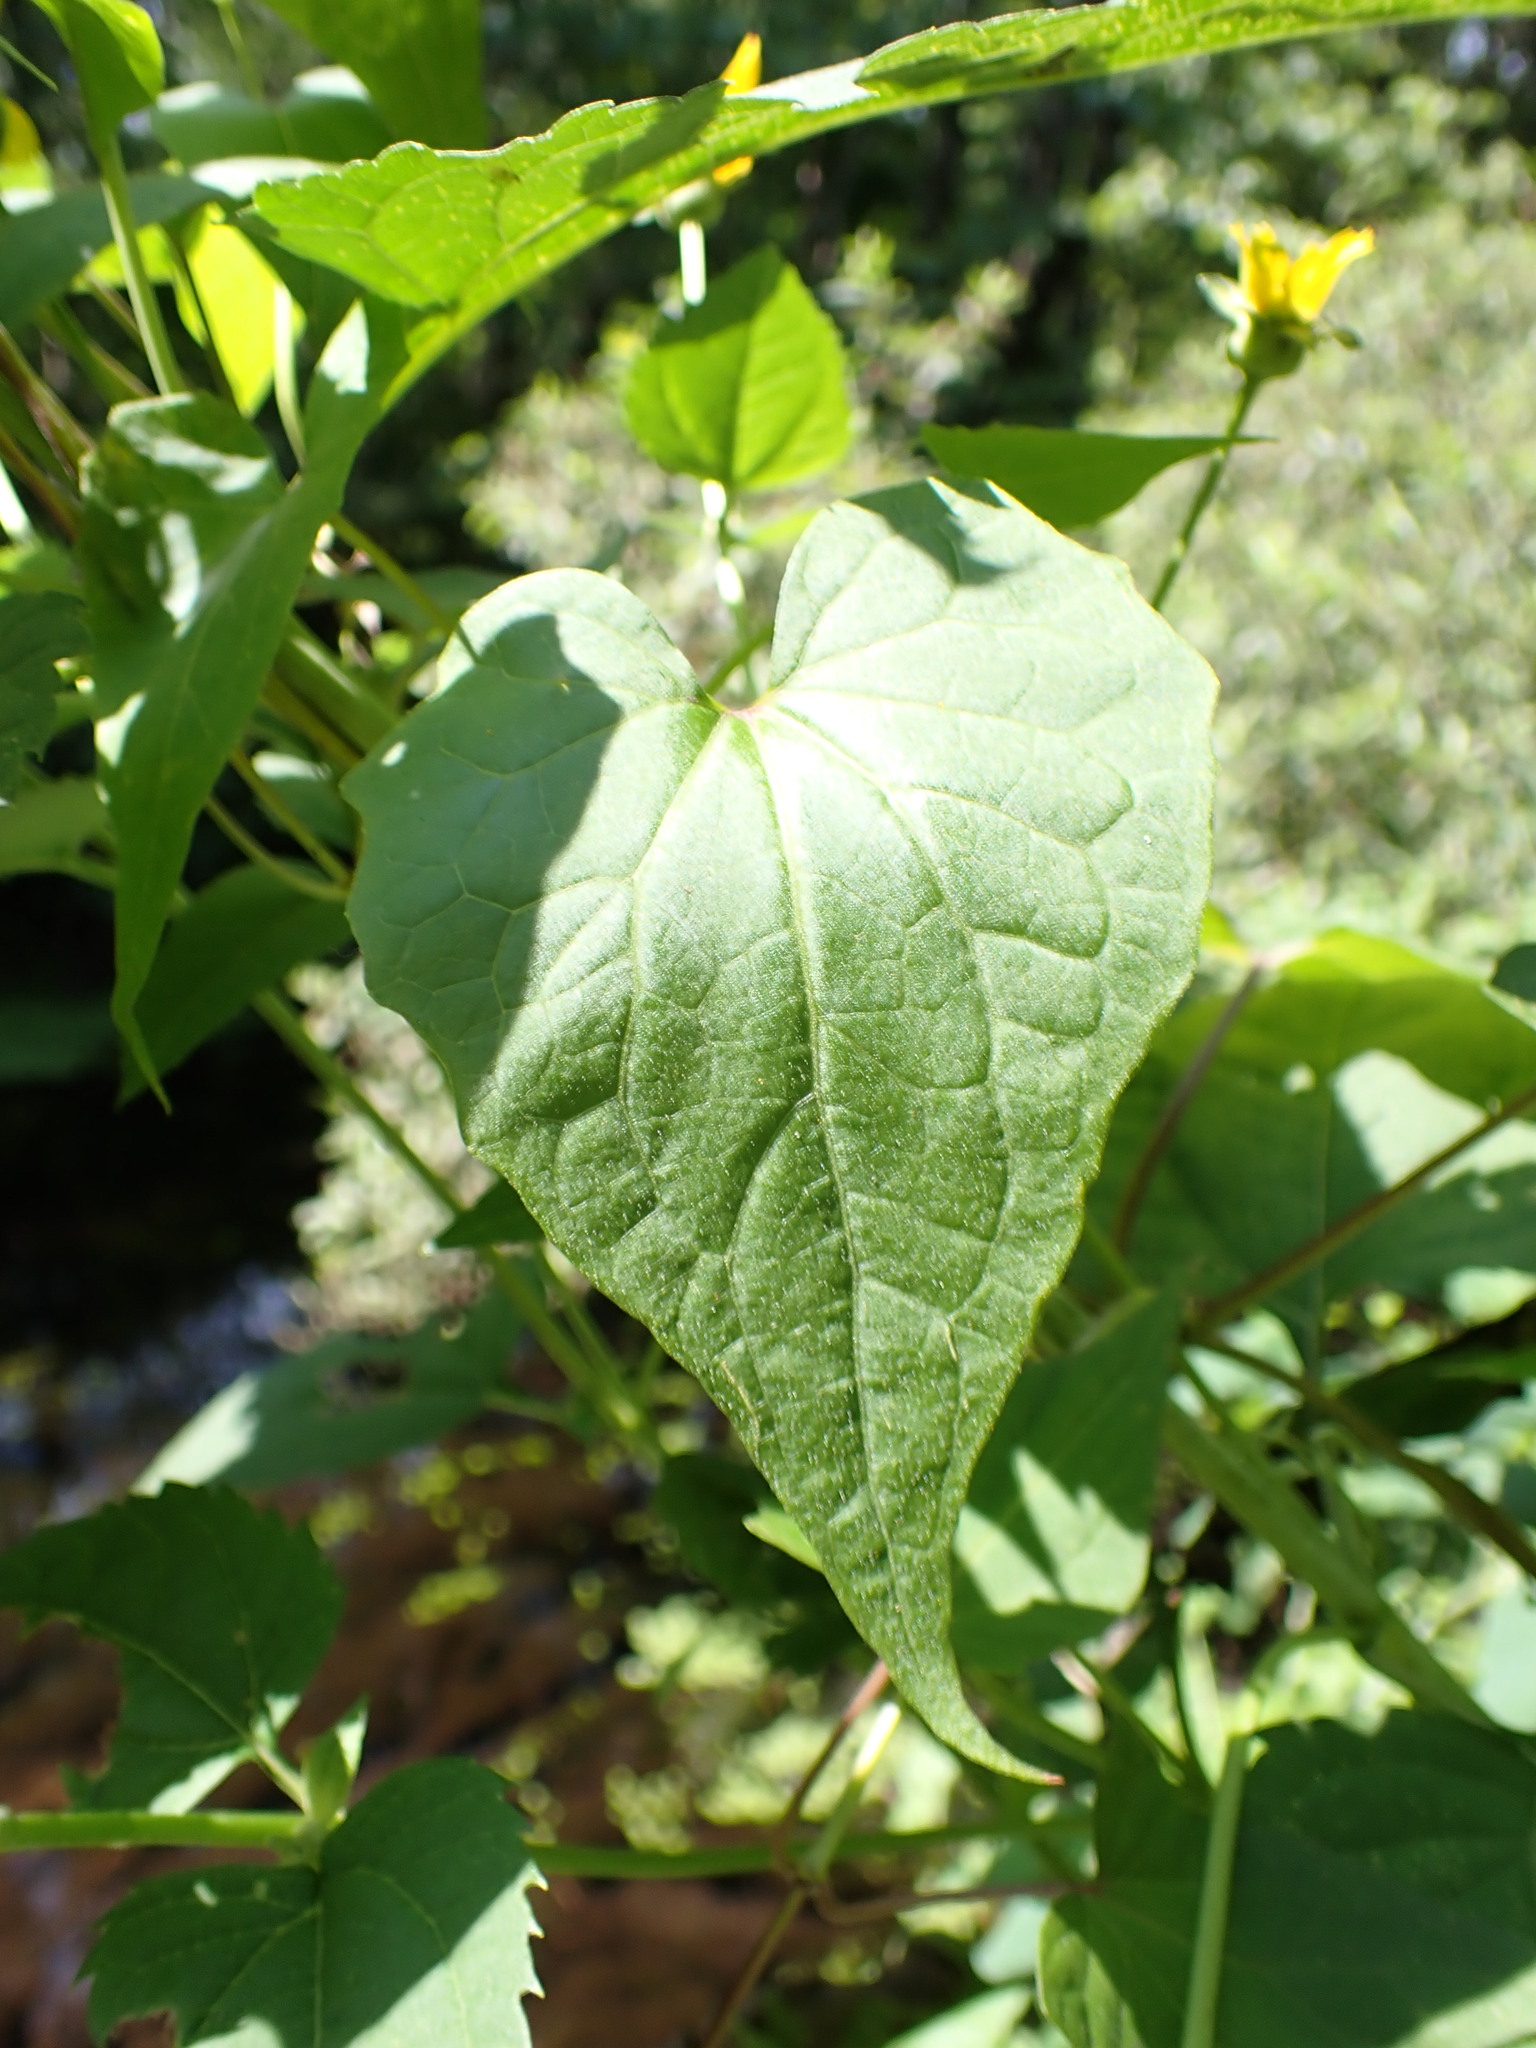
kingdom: Plantae
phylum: Tracheophyta
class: Magnoliopsida
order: Asterales
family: Asteraceae
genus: Mikania
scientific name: Mikania scandens
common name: Climbing hempvine
